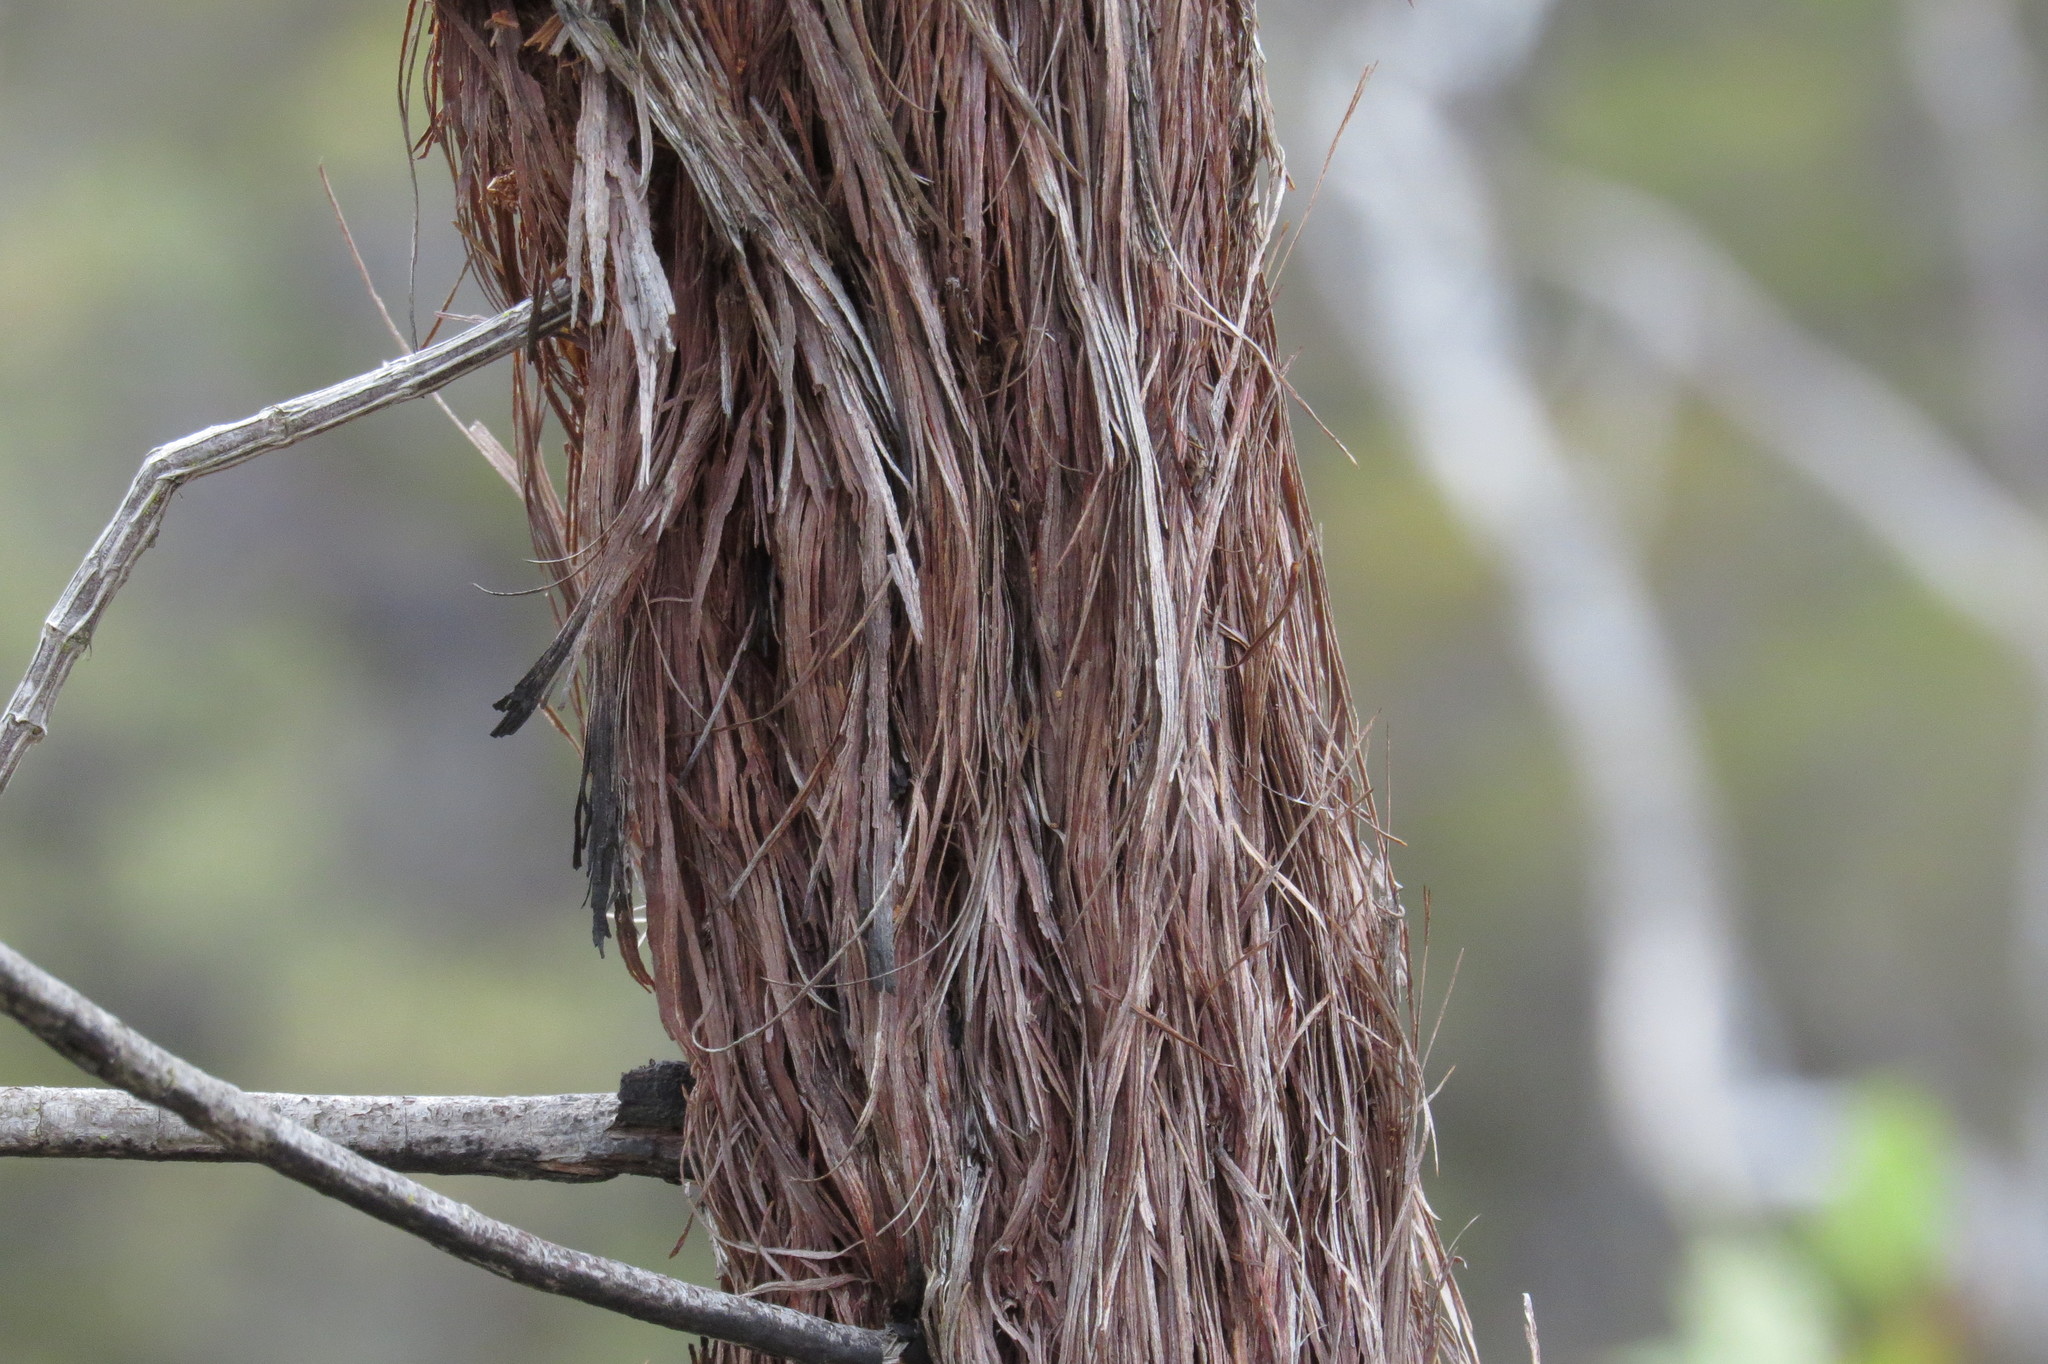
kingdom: Plantae
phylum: Tracheophyta
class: Magnoliopsida
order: Fagales
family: Casuarinaceae
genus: Allocasuarina
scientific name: Allocasuarina inophloia
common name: Stringybark she-oak
